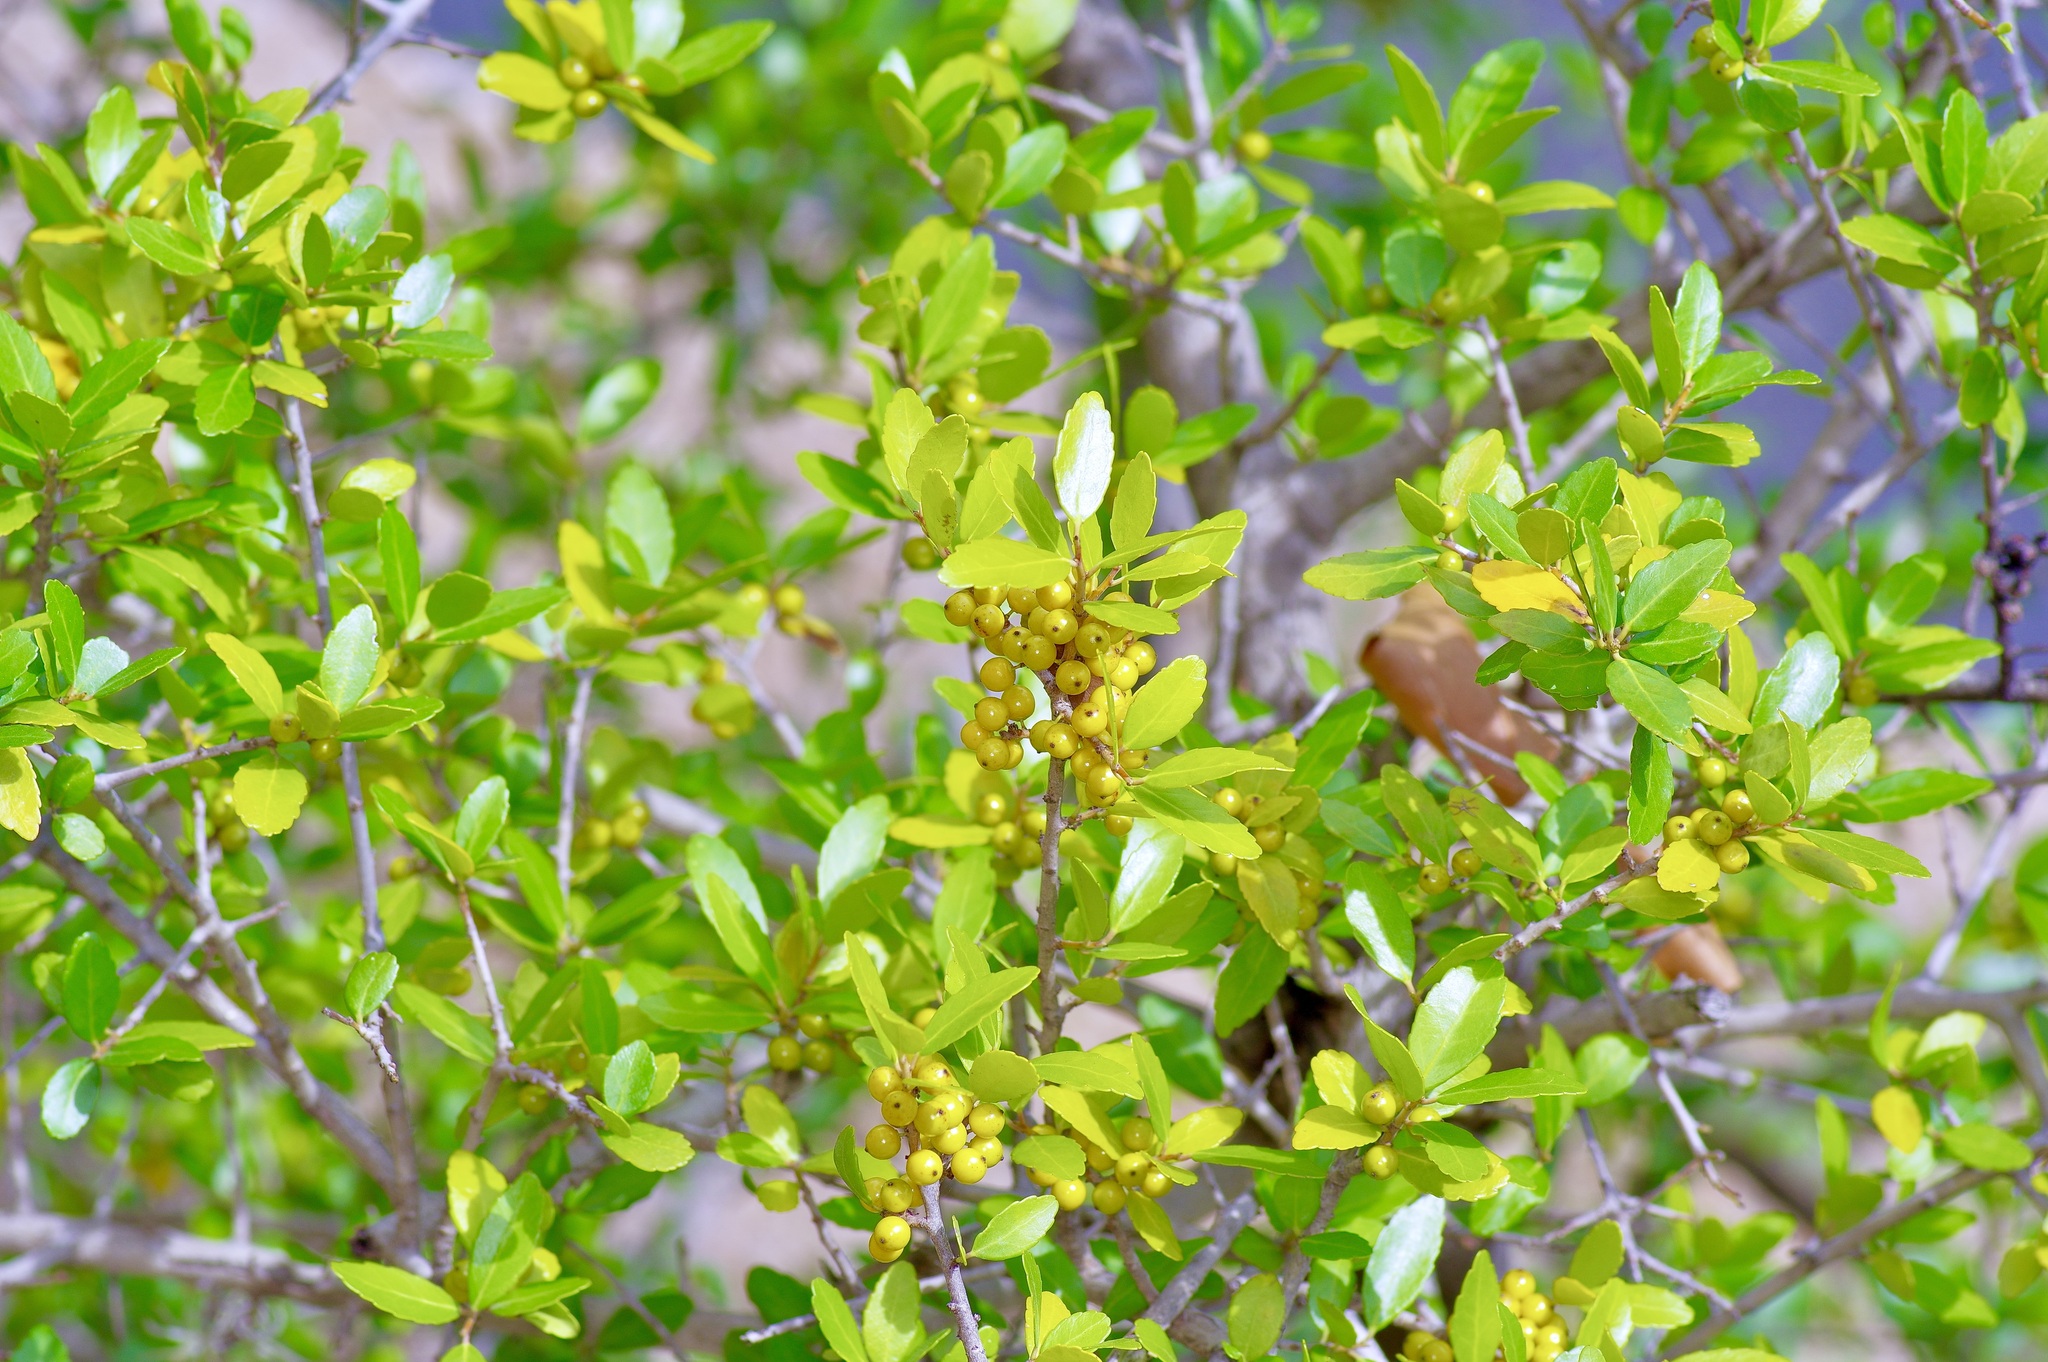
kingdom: Plantae
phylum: Tracheophyta
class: Magnoliopsida
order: Aquifoliales
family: Aquifoliaceae
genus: Ilex
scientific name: Ilex vomitoria
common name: Yaupon holly
